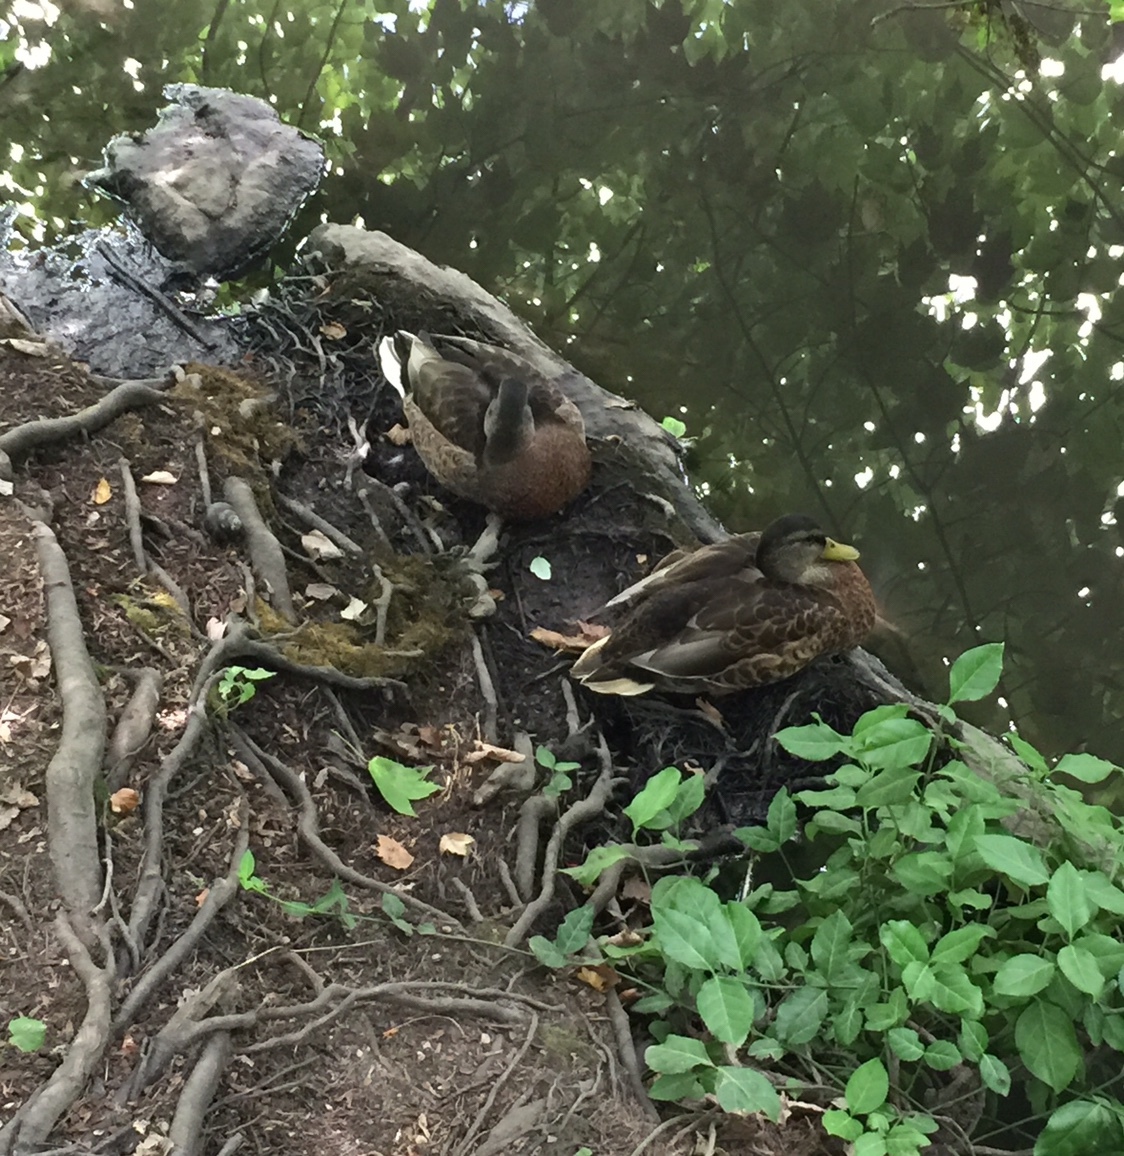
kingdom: Animalia
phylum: Chordata
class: Aves
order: Anseriformes
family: Anatidae
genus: Anas
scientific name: Anas platyrhynchos
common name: Mallard
